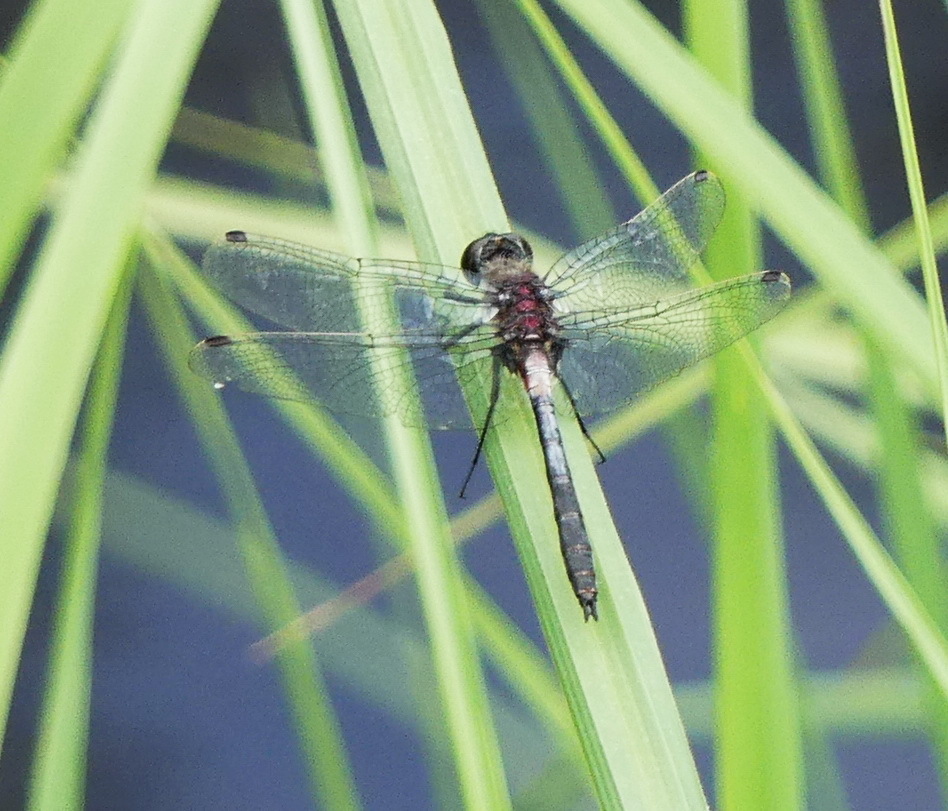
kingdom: Animalia
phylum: Arthropoda
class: Insecta
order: Odonata
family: Libellulidae
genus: Leucorrhinia
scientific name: Leucorrhinia proxima
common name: Belted whiteface
